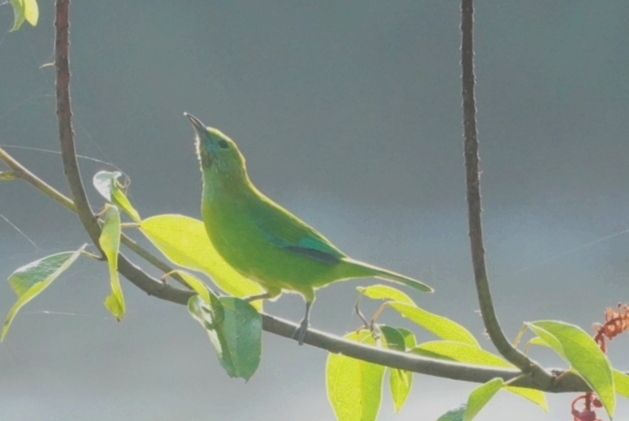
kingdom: Animalia
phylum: Chordata
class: Aves
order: Passeriformes
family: Chloropseidae
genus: Chloropsis
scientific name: Chloropsis moluccensis
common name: Blue-winged leafbird
